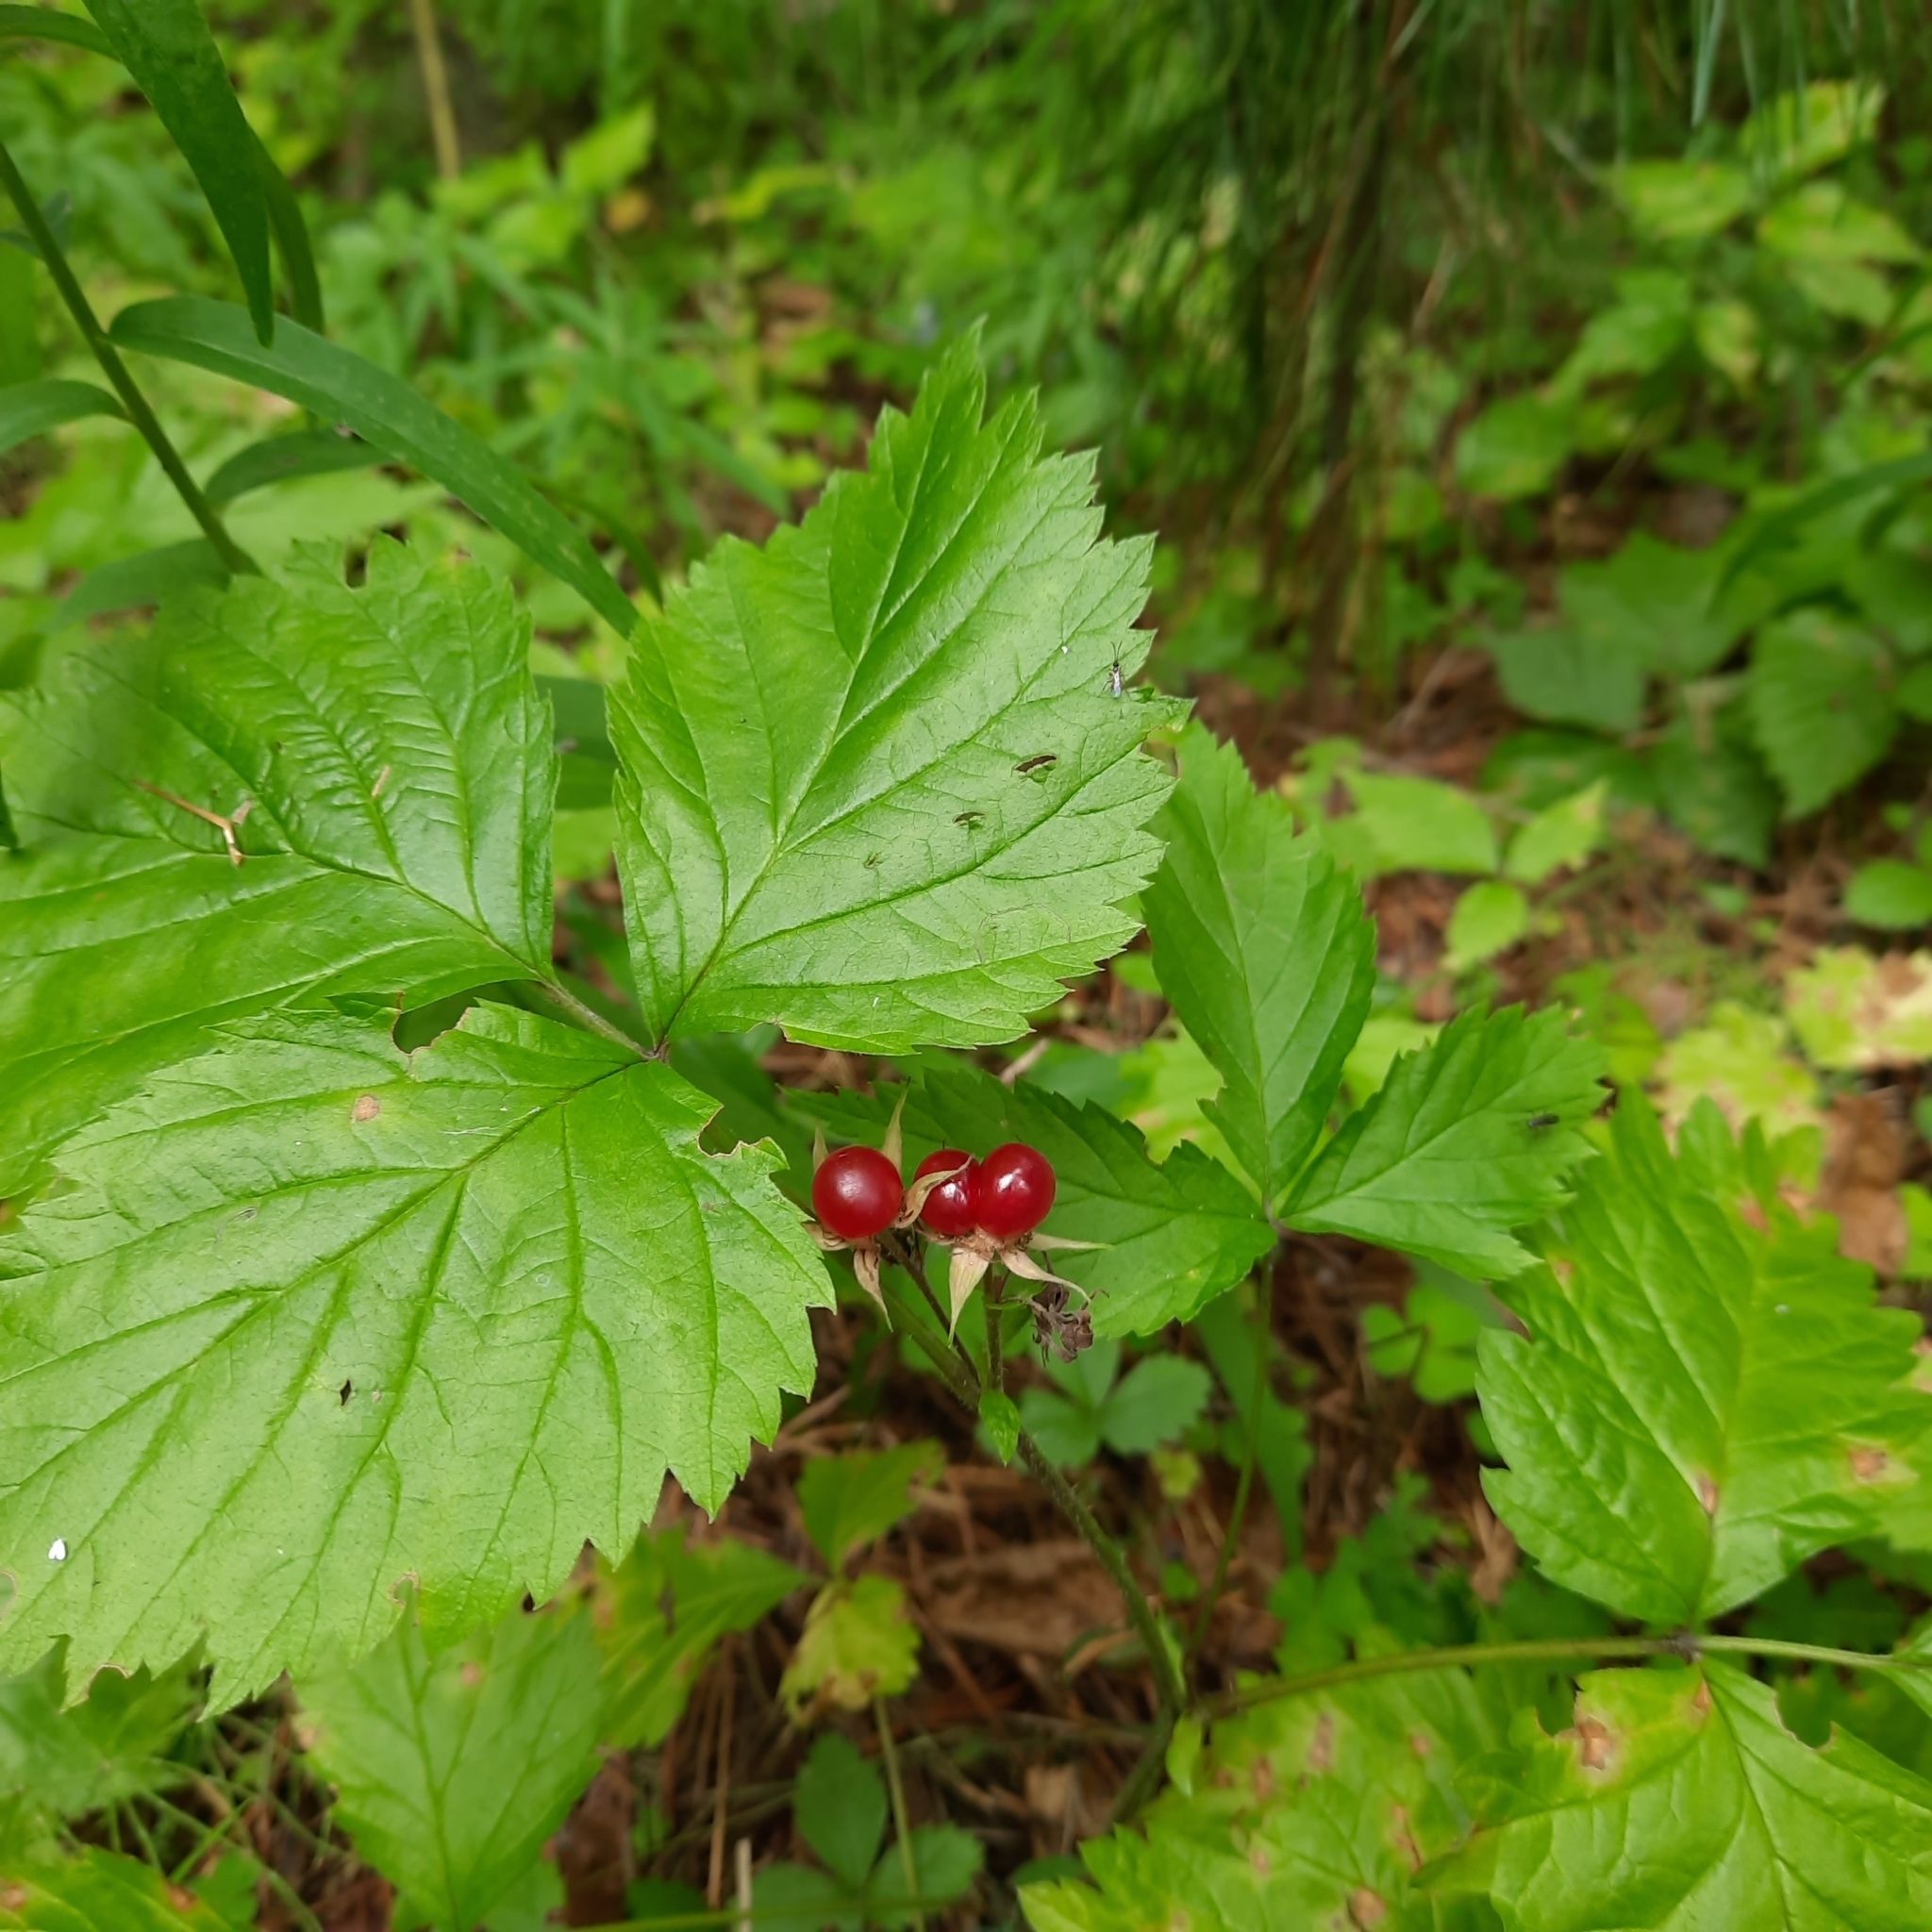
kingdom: Plantae
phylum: Tracheophyta
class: Magnoliopsida
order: Rosales
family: Rosaceae
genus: Rubus
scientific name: Rubus saxatilis
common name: Stone bramble
